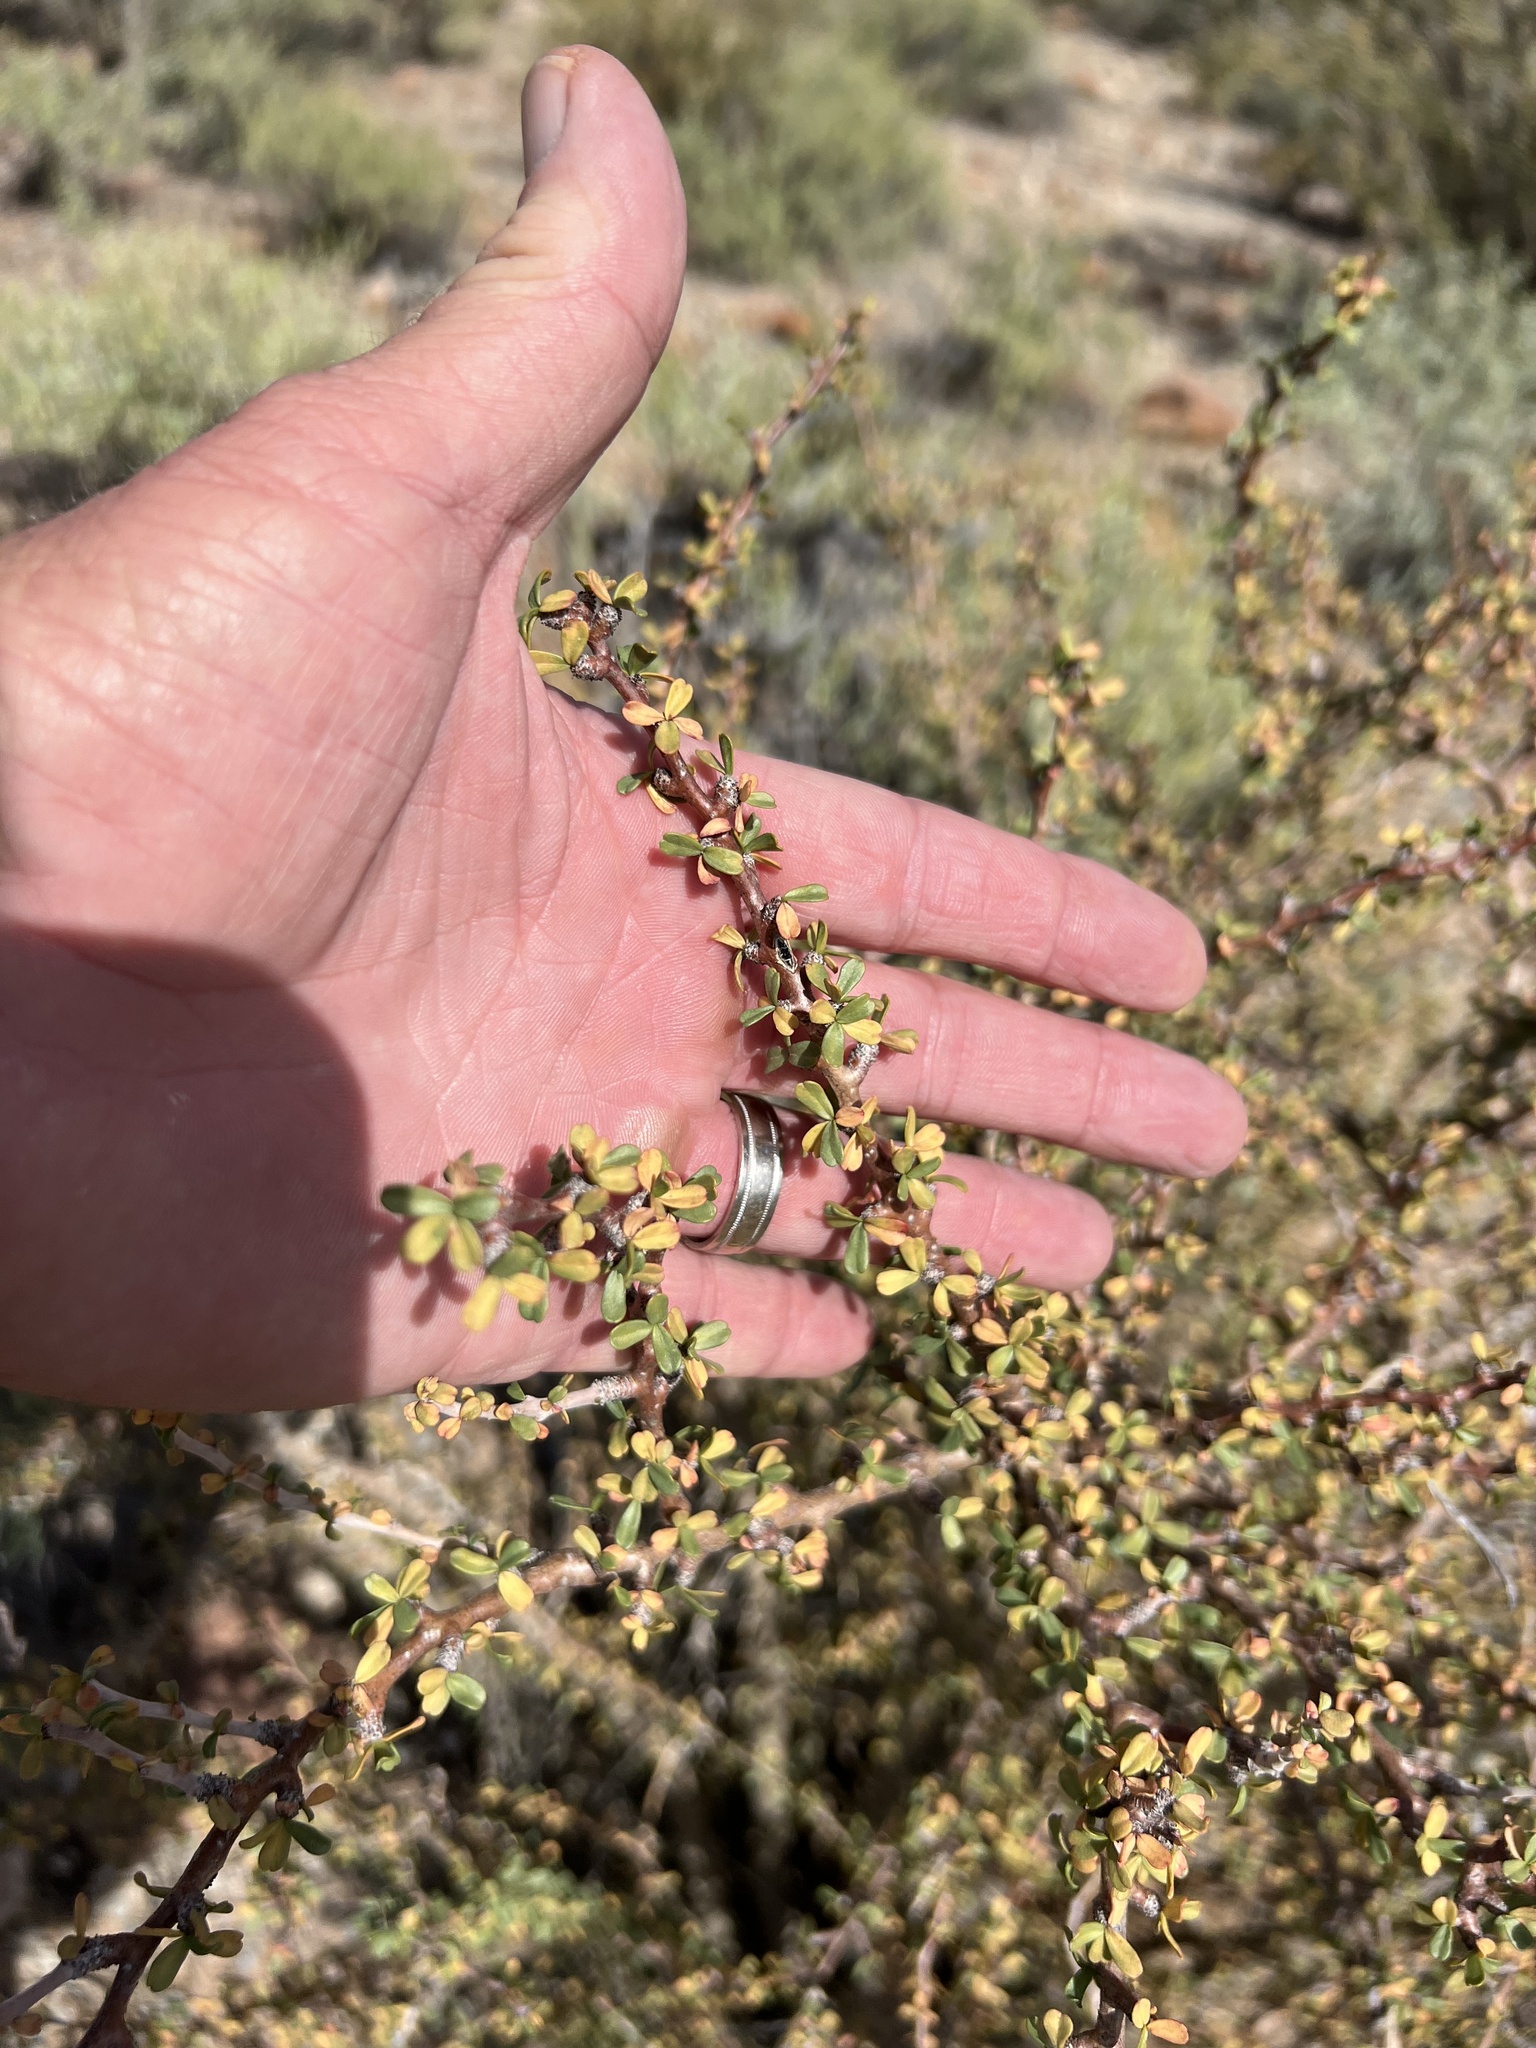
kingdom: Plantae
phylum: Tracheophyta
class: Magnoliopsida
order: Malpighiales
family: Euphorbiaceae
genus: Jatropha
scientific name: Jatropha cuneata
